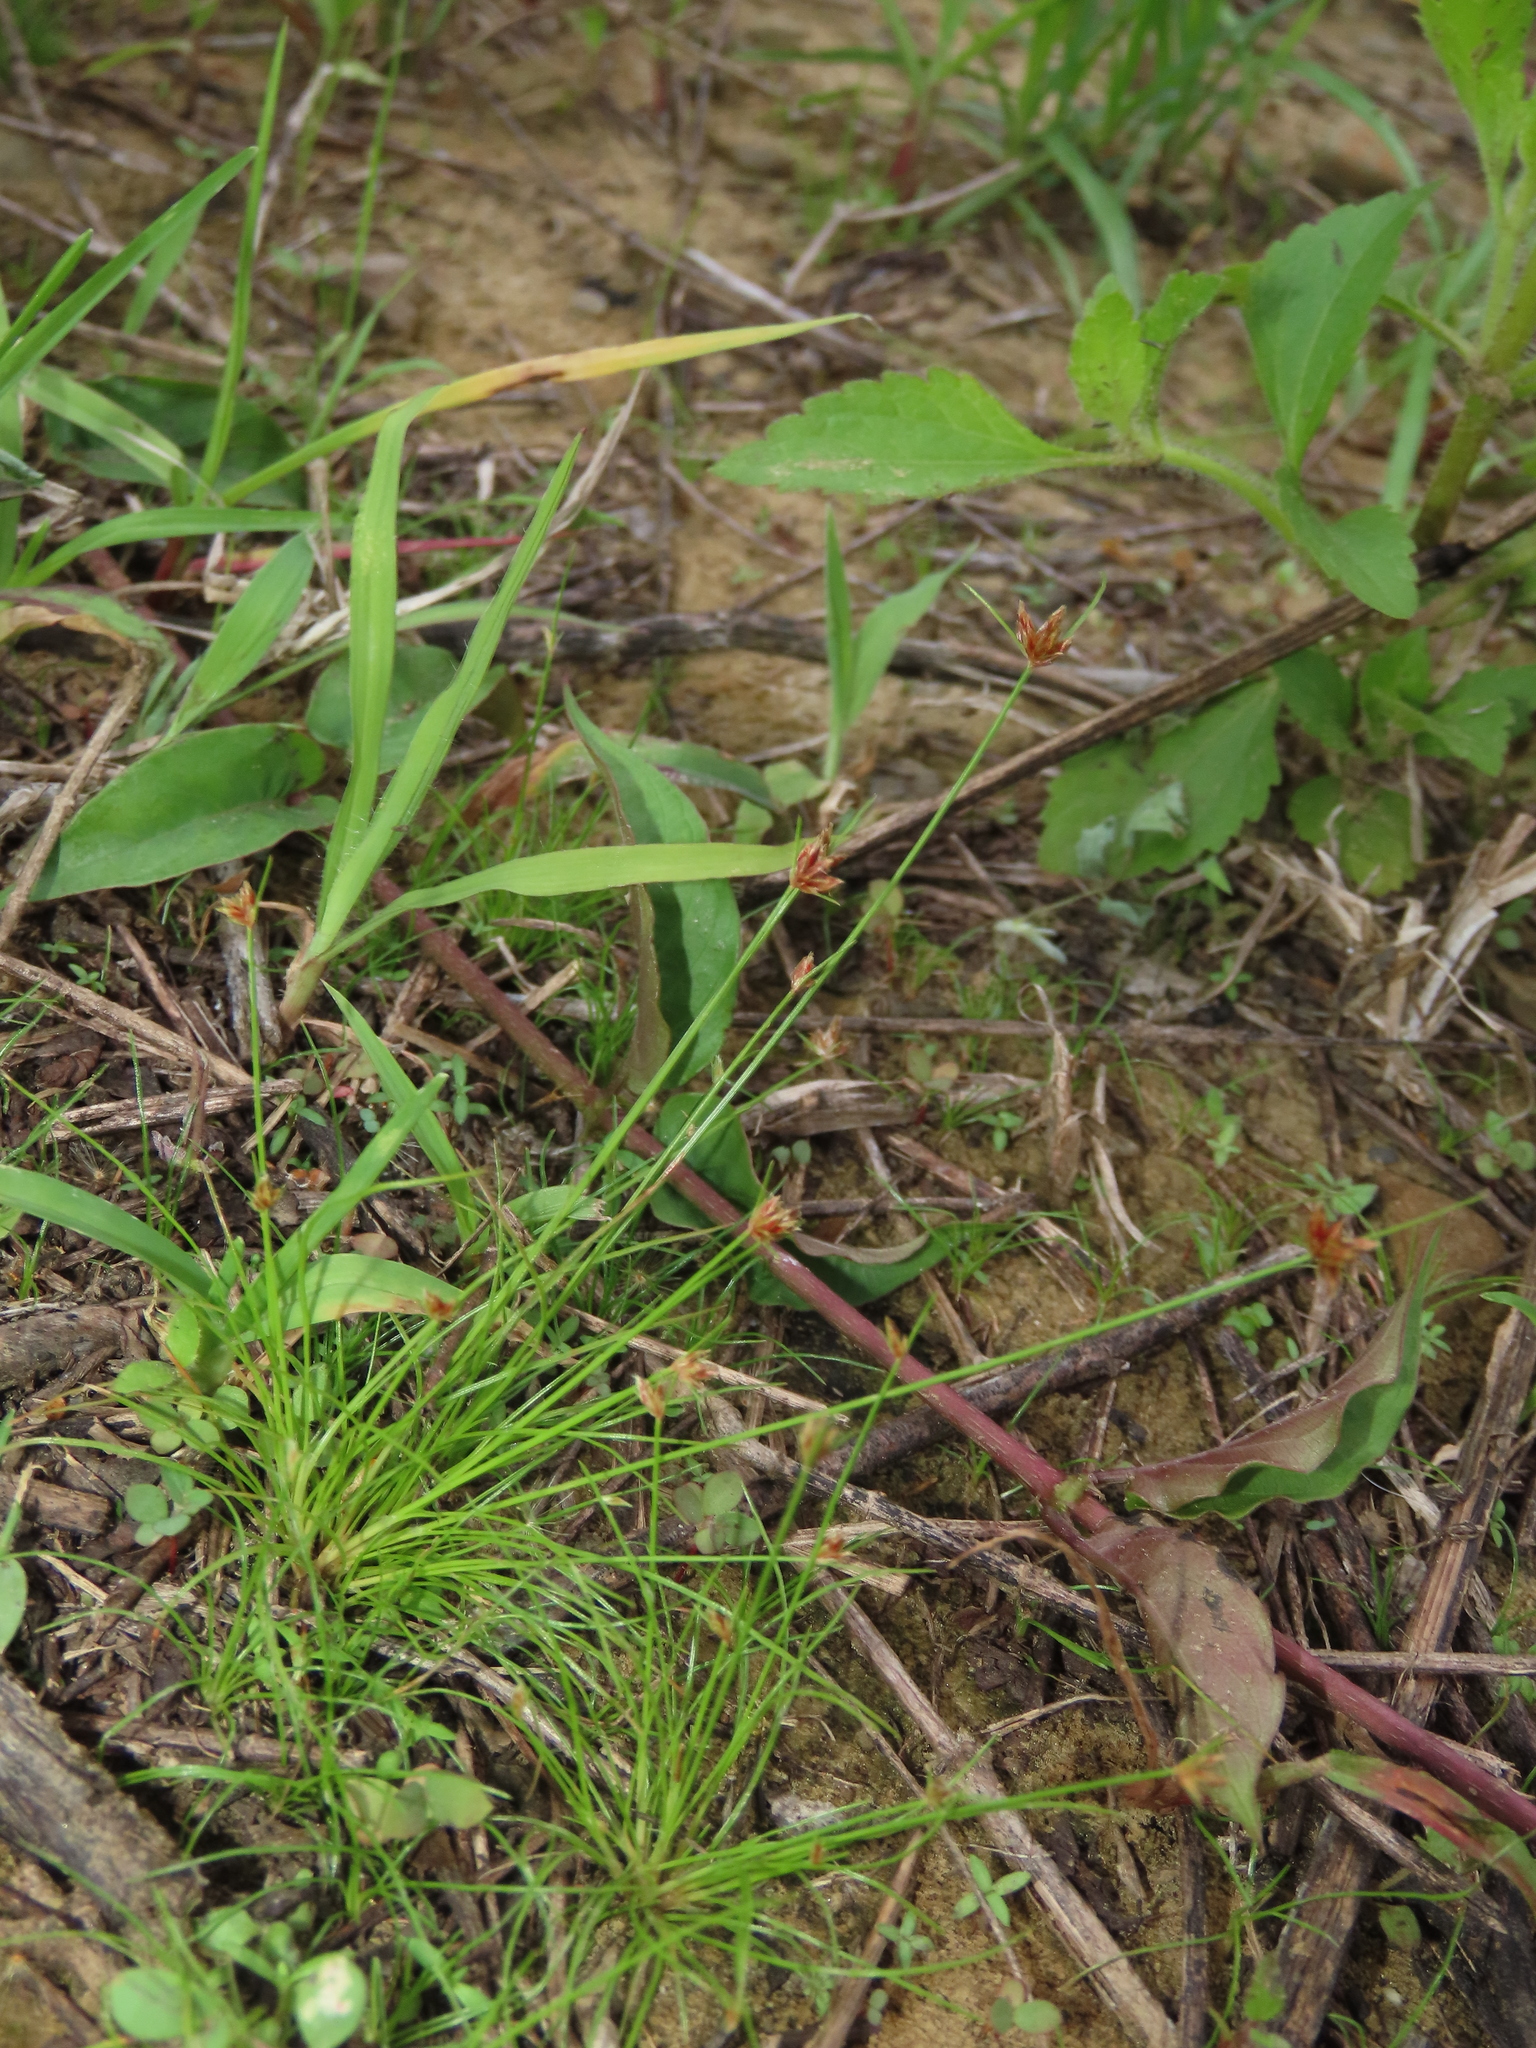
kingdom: Plantae
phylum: Tracheophyta
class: Liliopsida
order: Poales
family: Cyperaceae
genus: Bulbostylis
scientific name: Bulbostylis barbata
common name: Watergrass
